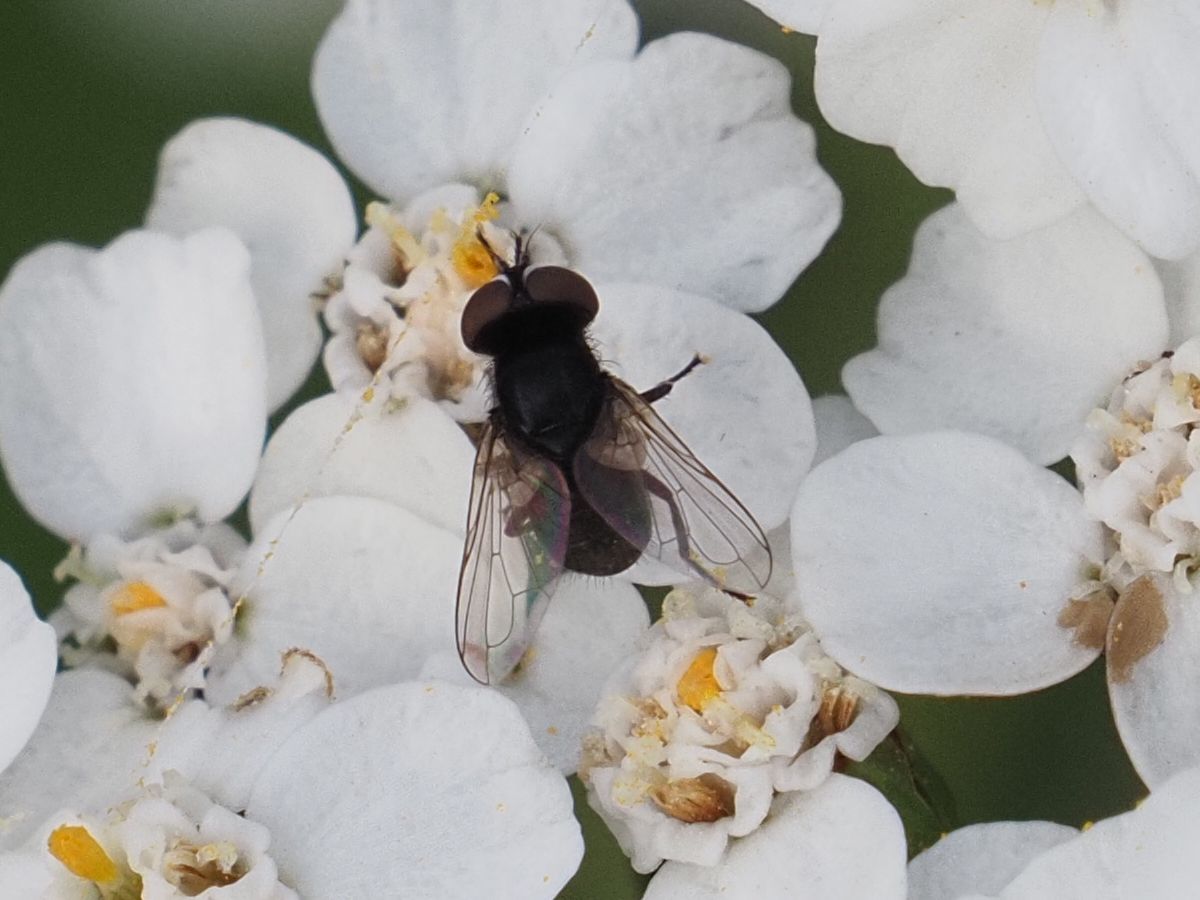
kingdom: Animalia
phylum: Arthropoda
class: Insecta
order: Diptera
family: Tachinidae
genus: Phasia
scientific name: Phasia pusilla
